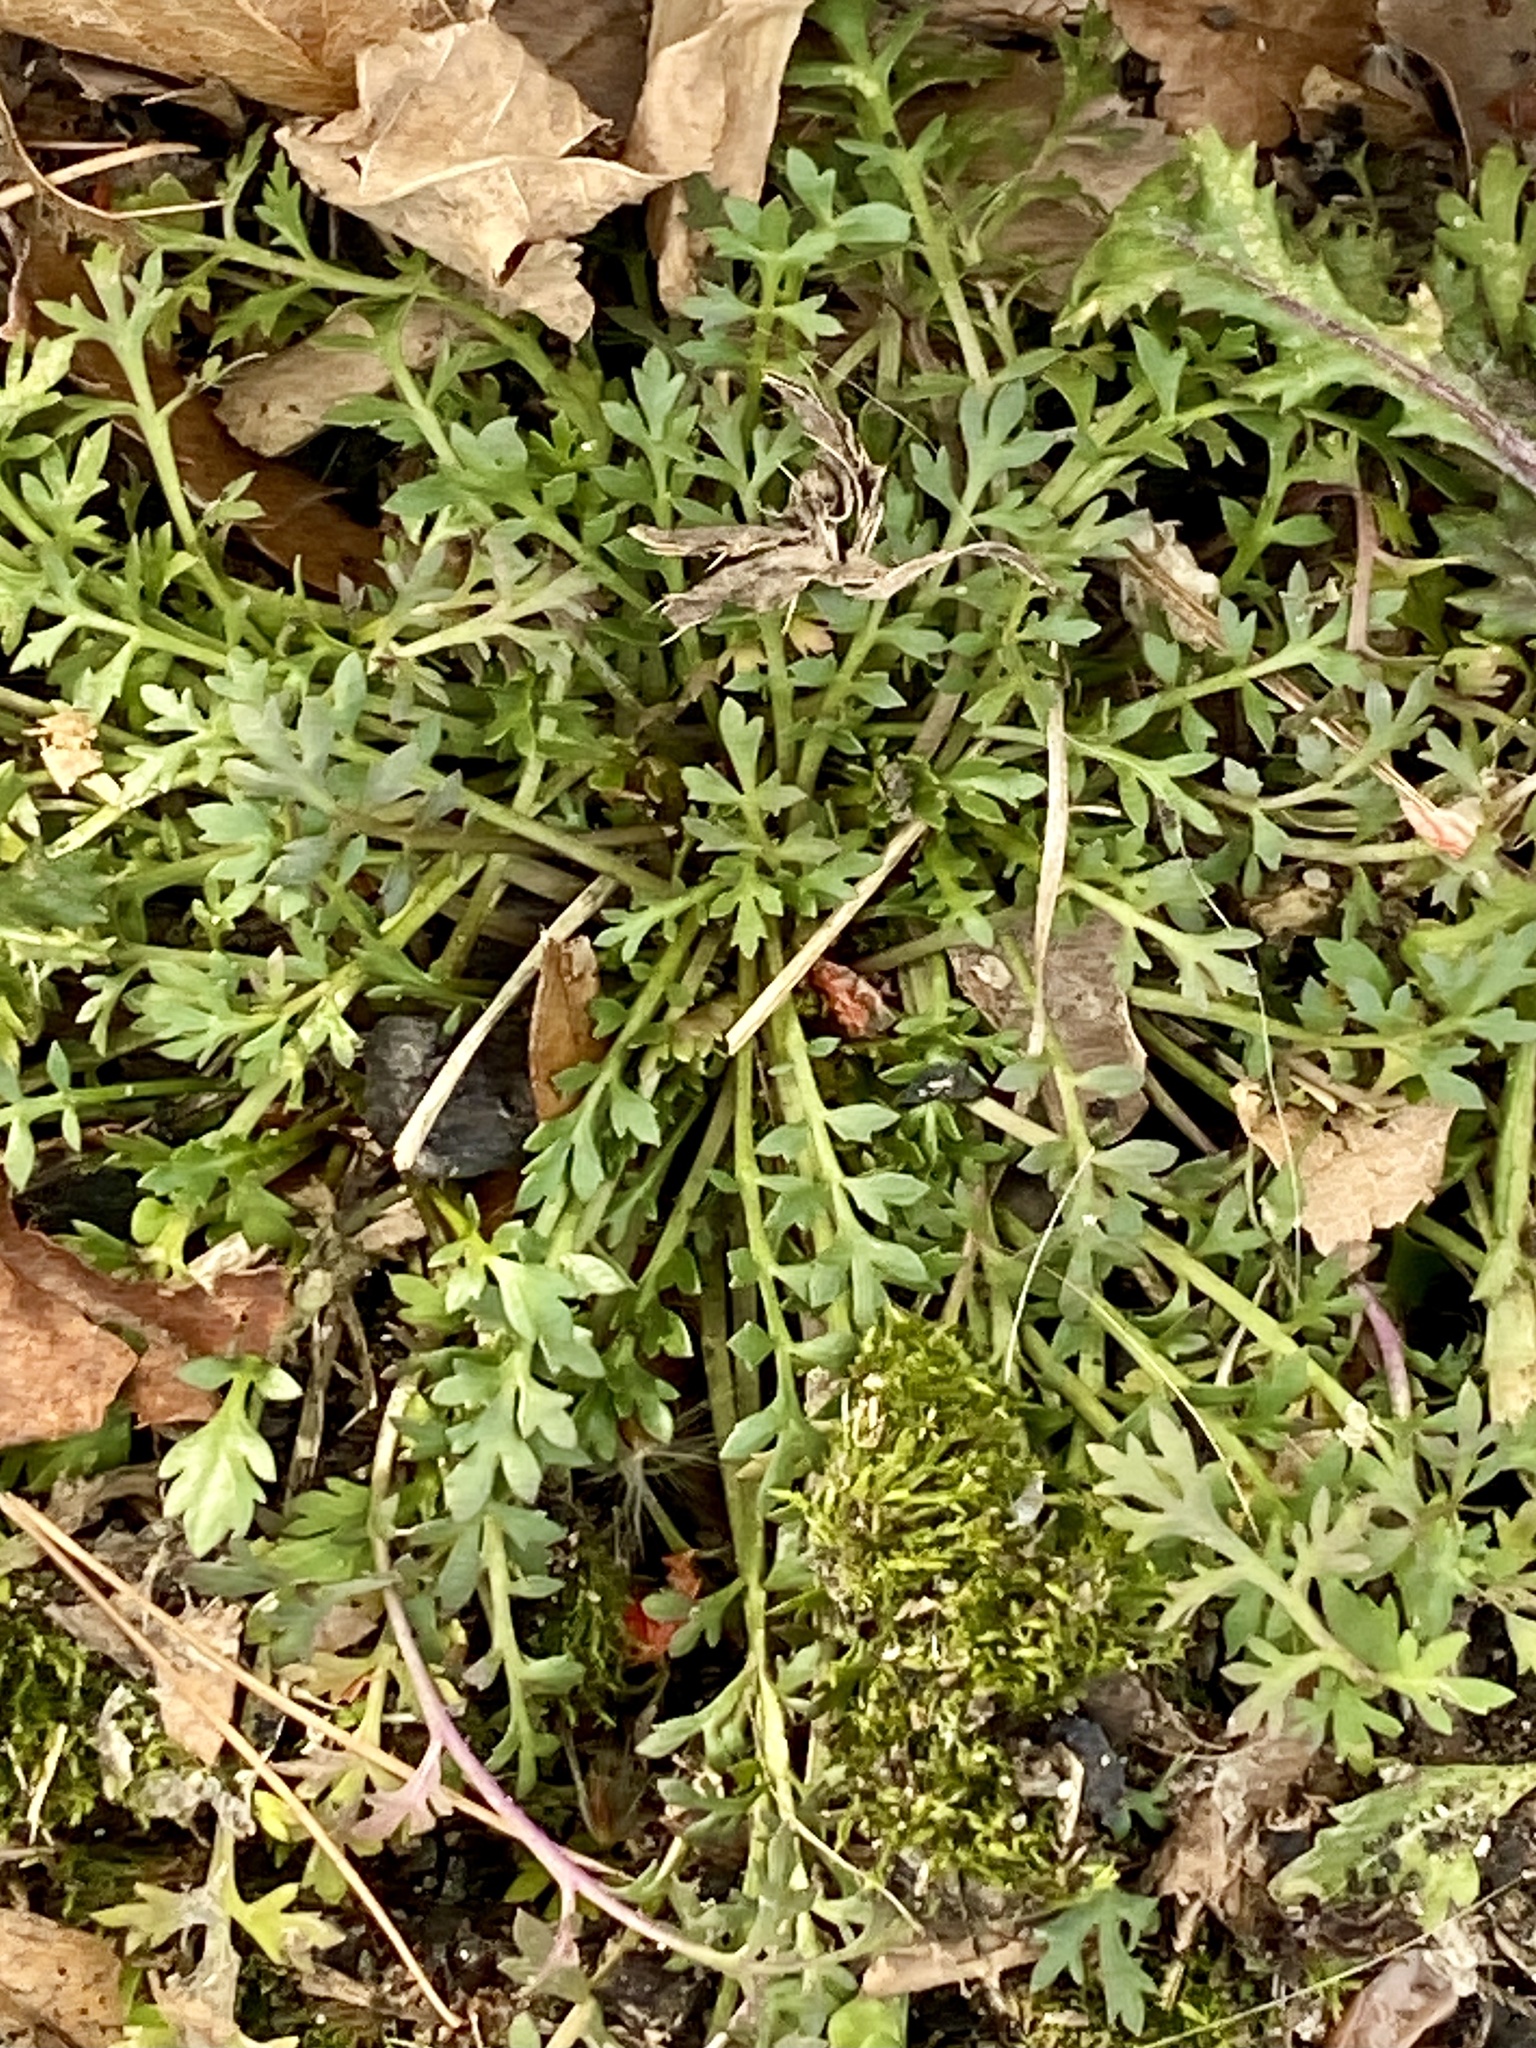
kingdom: Plantae
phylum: Tracheophyta
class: Magnoliopsida
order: Brassicales
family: Brassicaceae
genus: Lepidium
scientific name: Lepidium didymum
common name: Lesser swinecress
